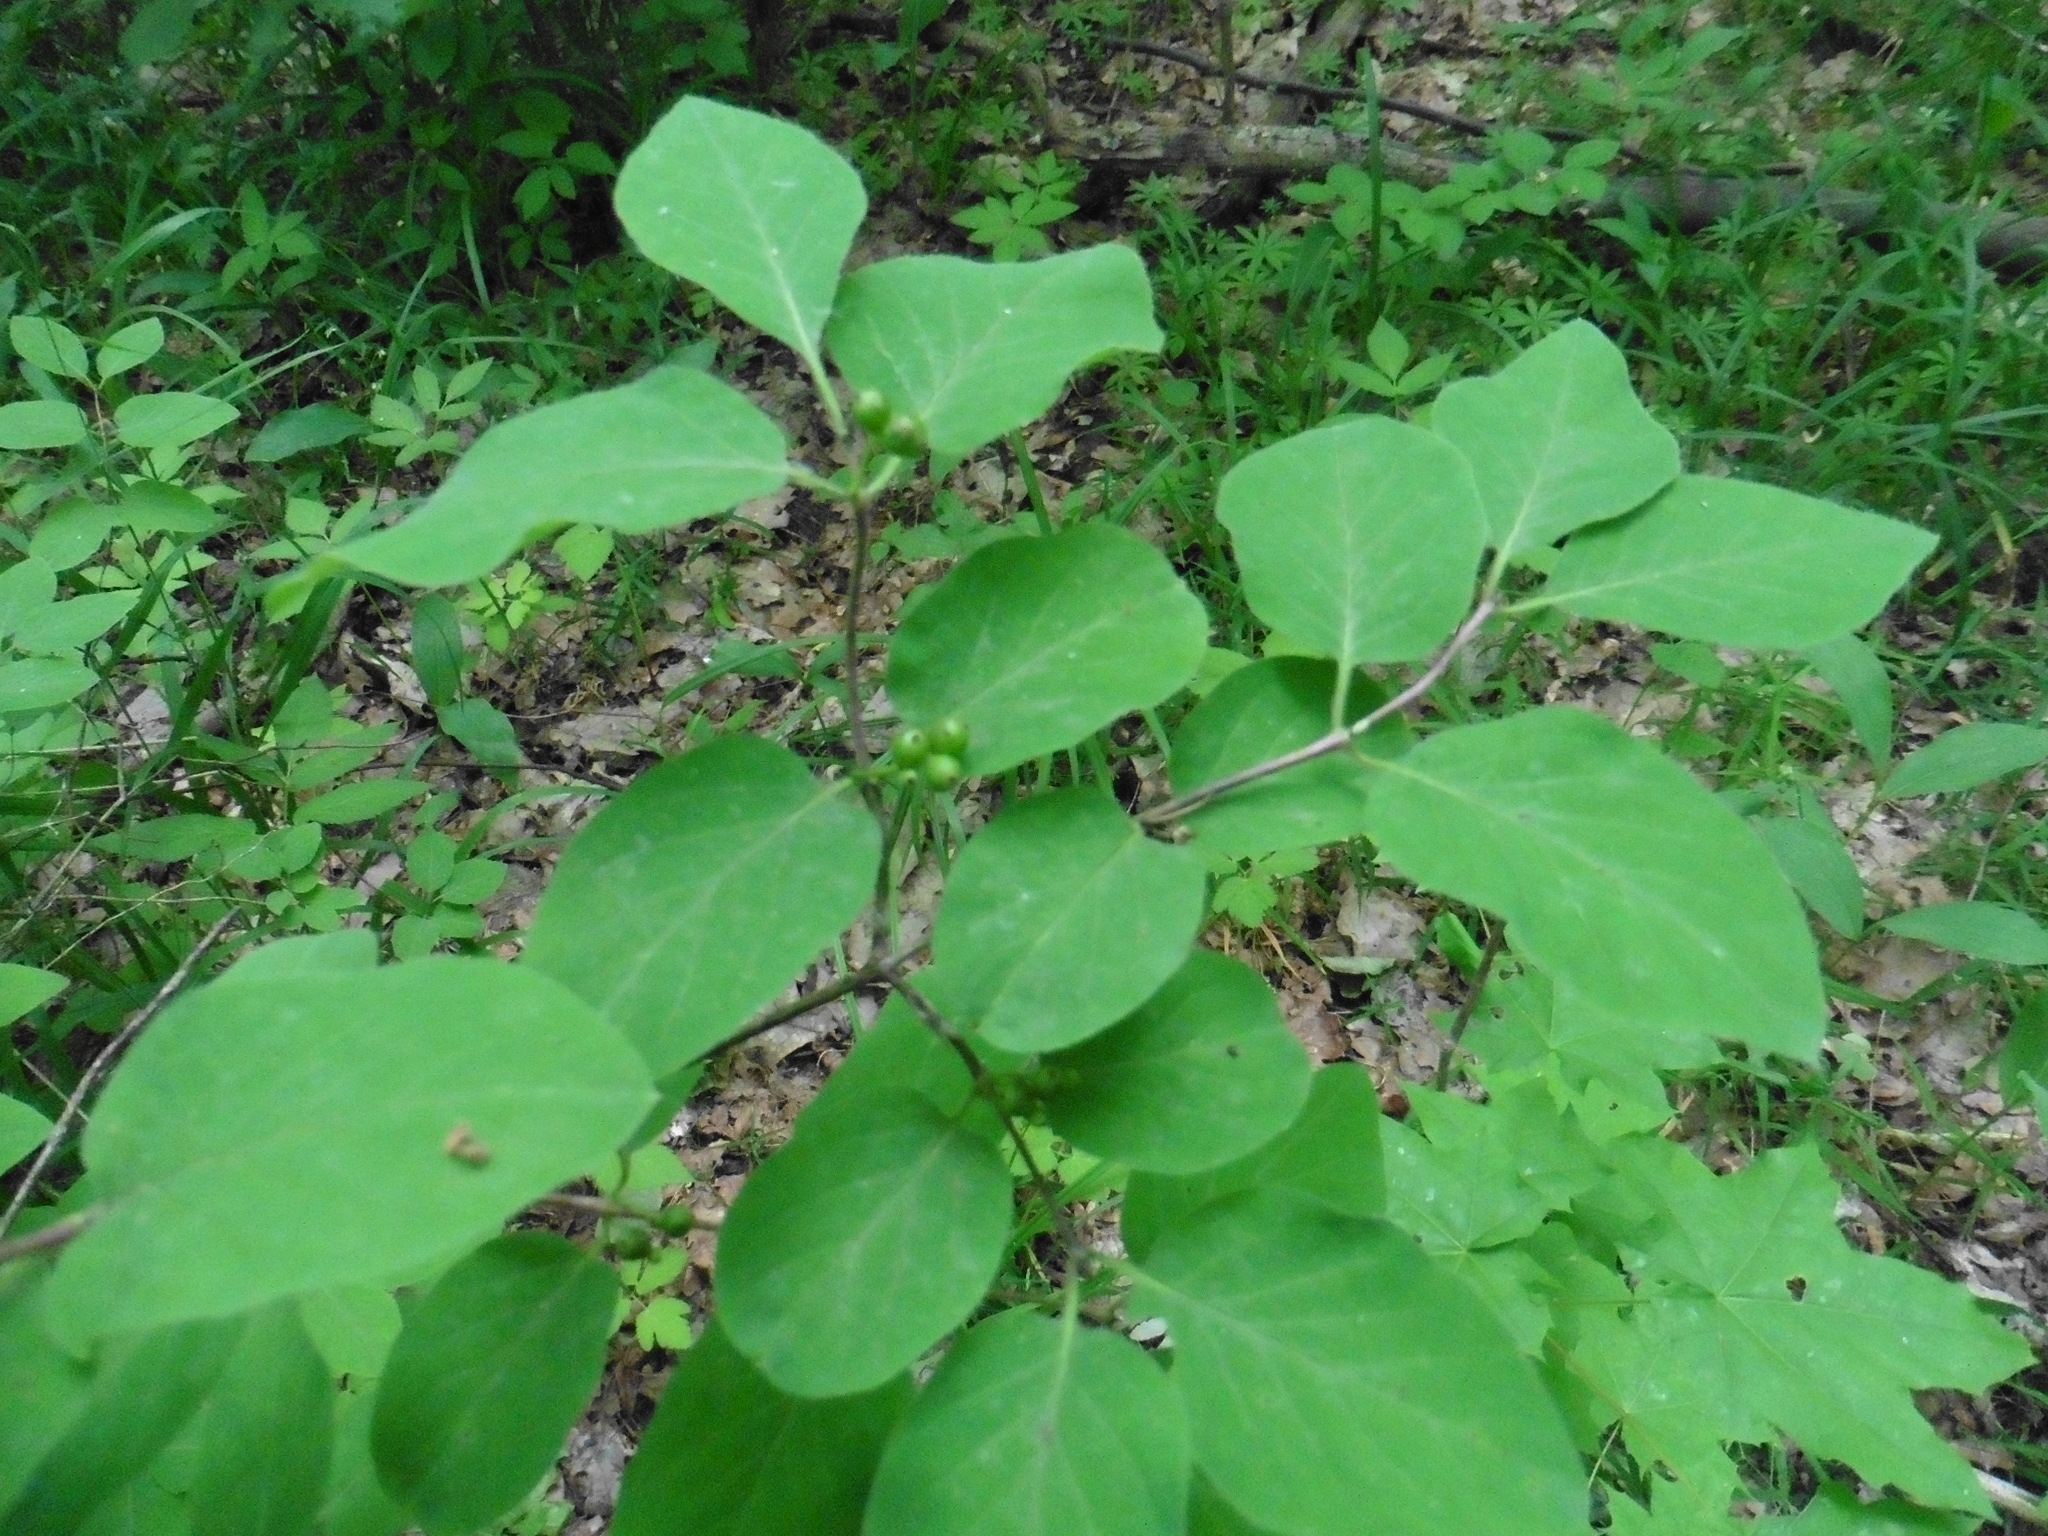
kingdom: Plantae
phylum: Tracheophyta
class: Magnoliopsida
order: Dipsacales
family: Caprifoliaceae
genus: Lonicera
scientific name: Lonicera xylosteum
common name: Fly honeysuckle
